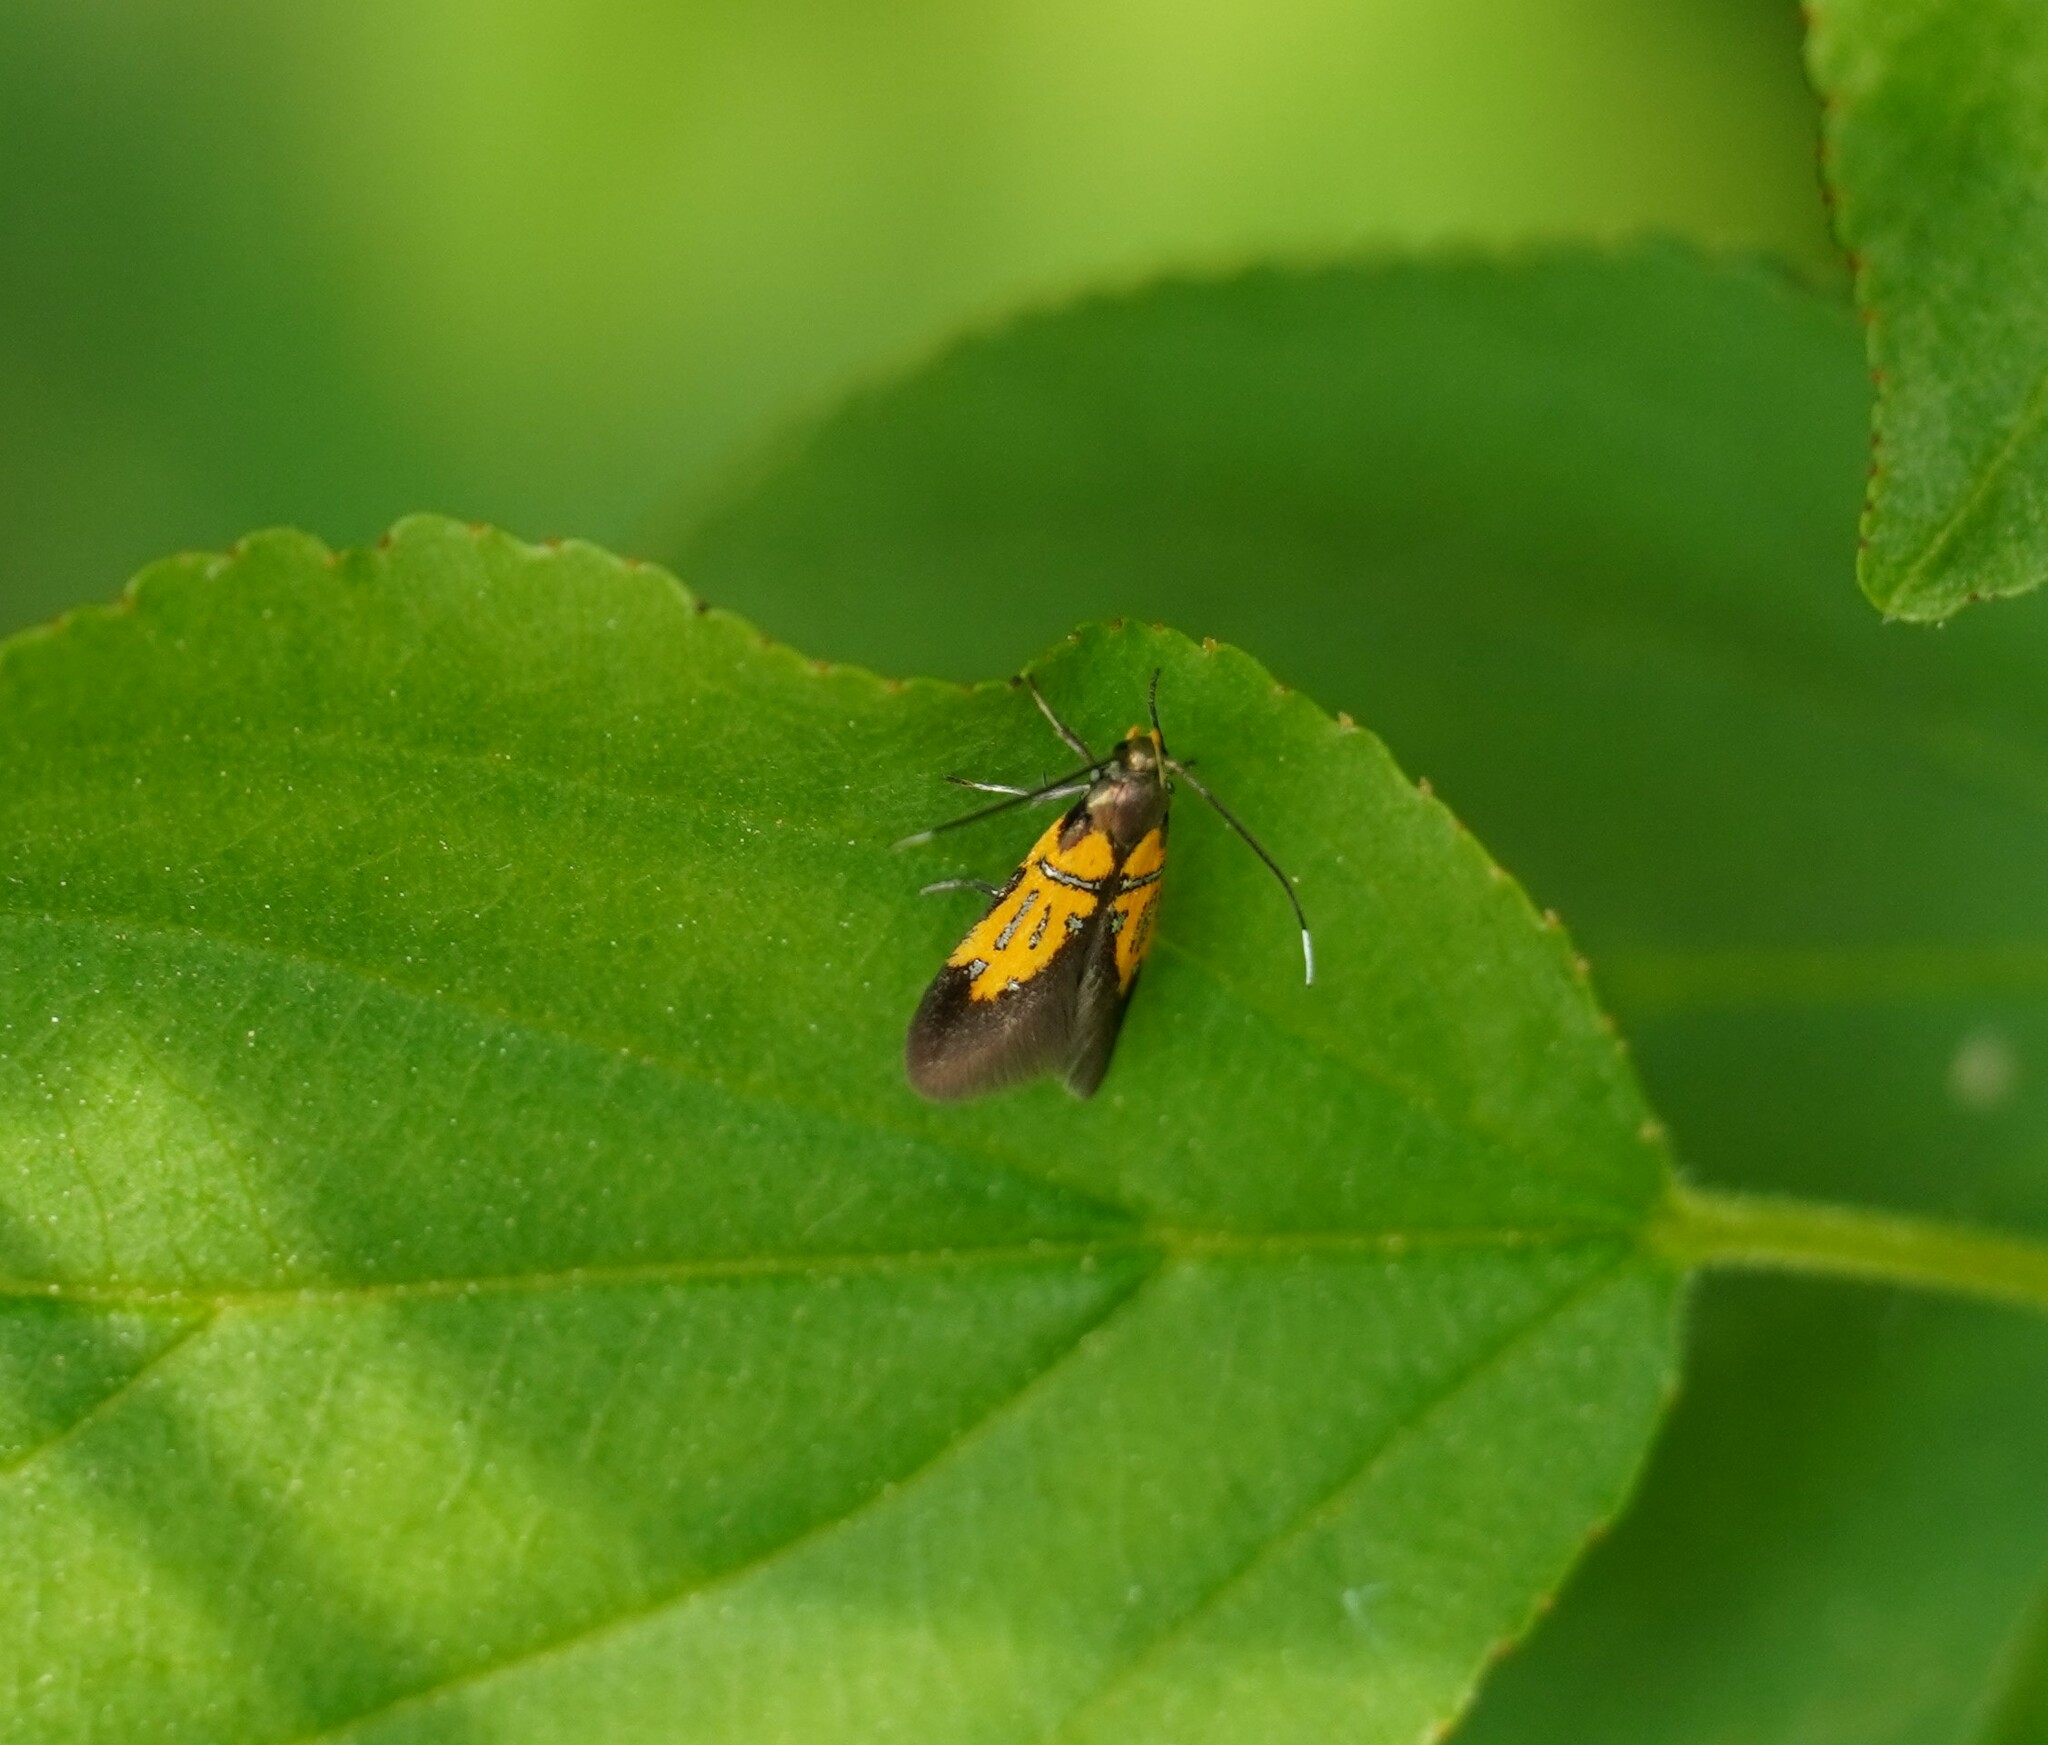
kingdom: Animalia
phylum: Arthropoda
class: Insecta
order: Lepidoptera
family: Oecophoridae
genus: Schiffermuelleria
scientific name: Schiffermuelleria schaefferella
